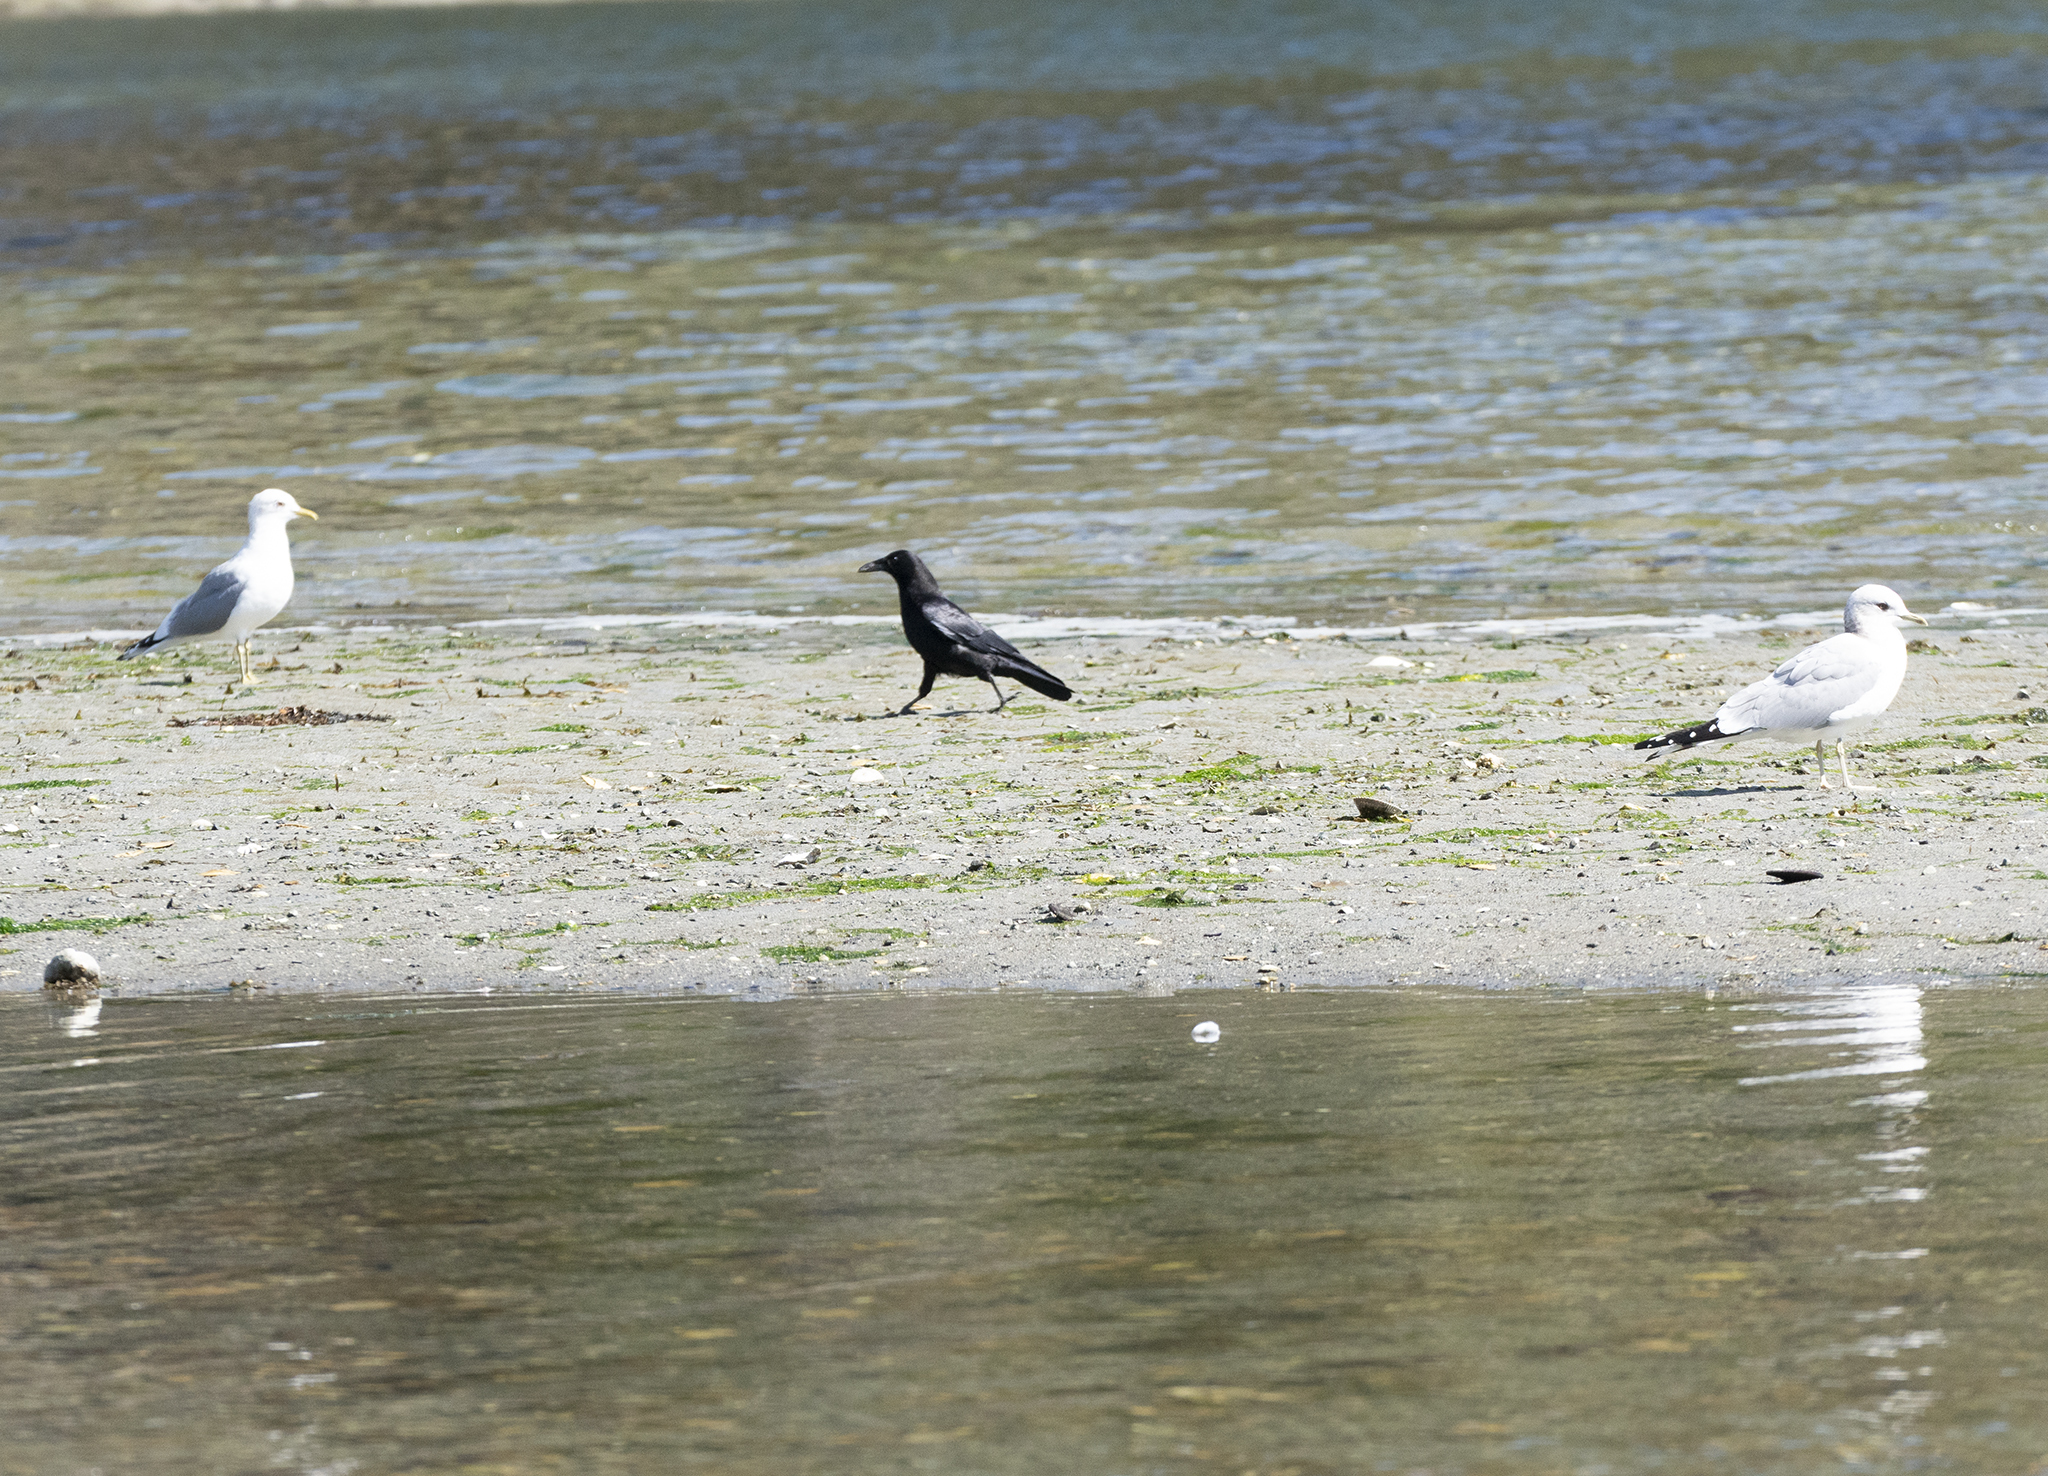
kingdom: Animalia
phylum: Chordata
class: Aves
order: Passeriformes
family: Corvidae
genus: Corvus
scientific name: Corvus brachyrhynchos
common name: American crow
